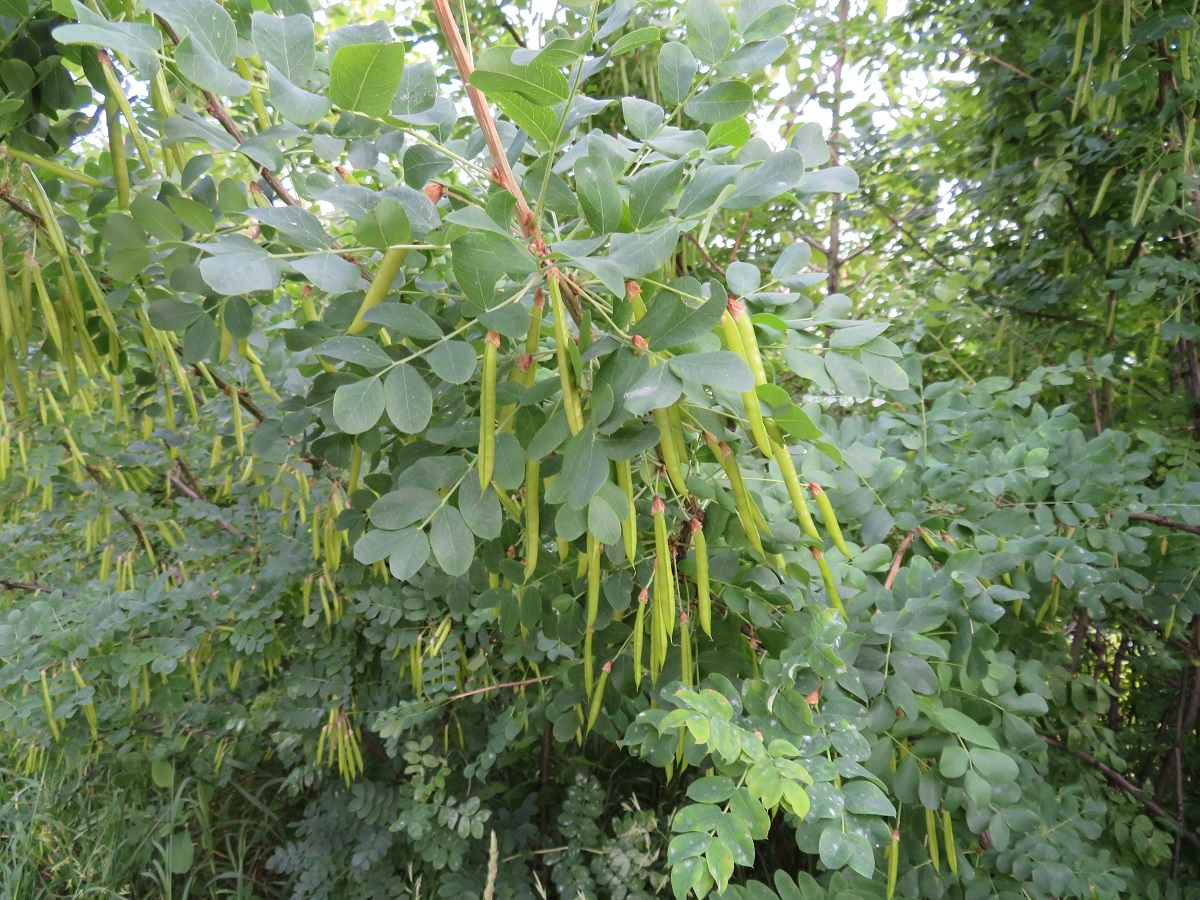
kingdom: Plantae
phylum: Tracheophyta
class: Magnoliopsida
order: Fabales
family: Fabaceae
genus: Caragana
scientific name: Caragana arborescens
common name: Siberian peashrub
